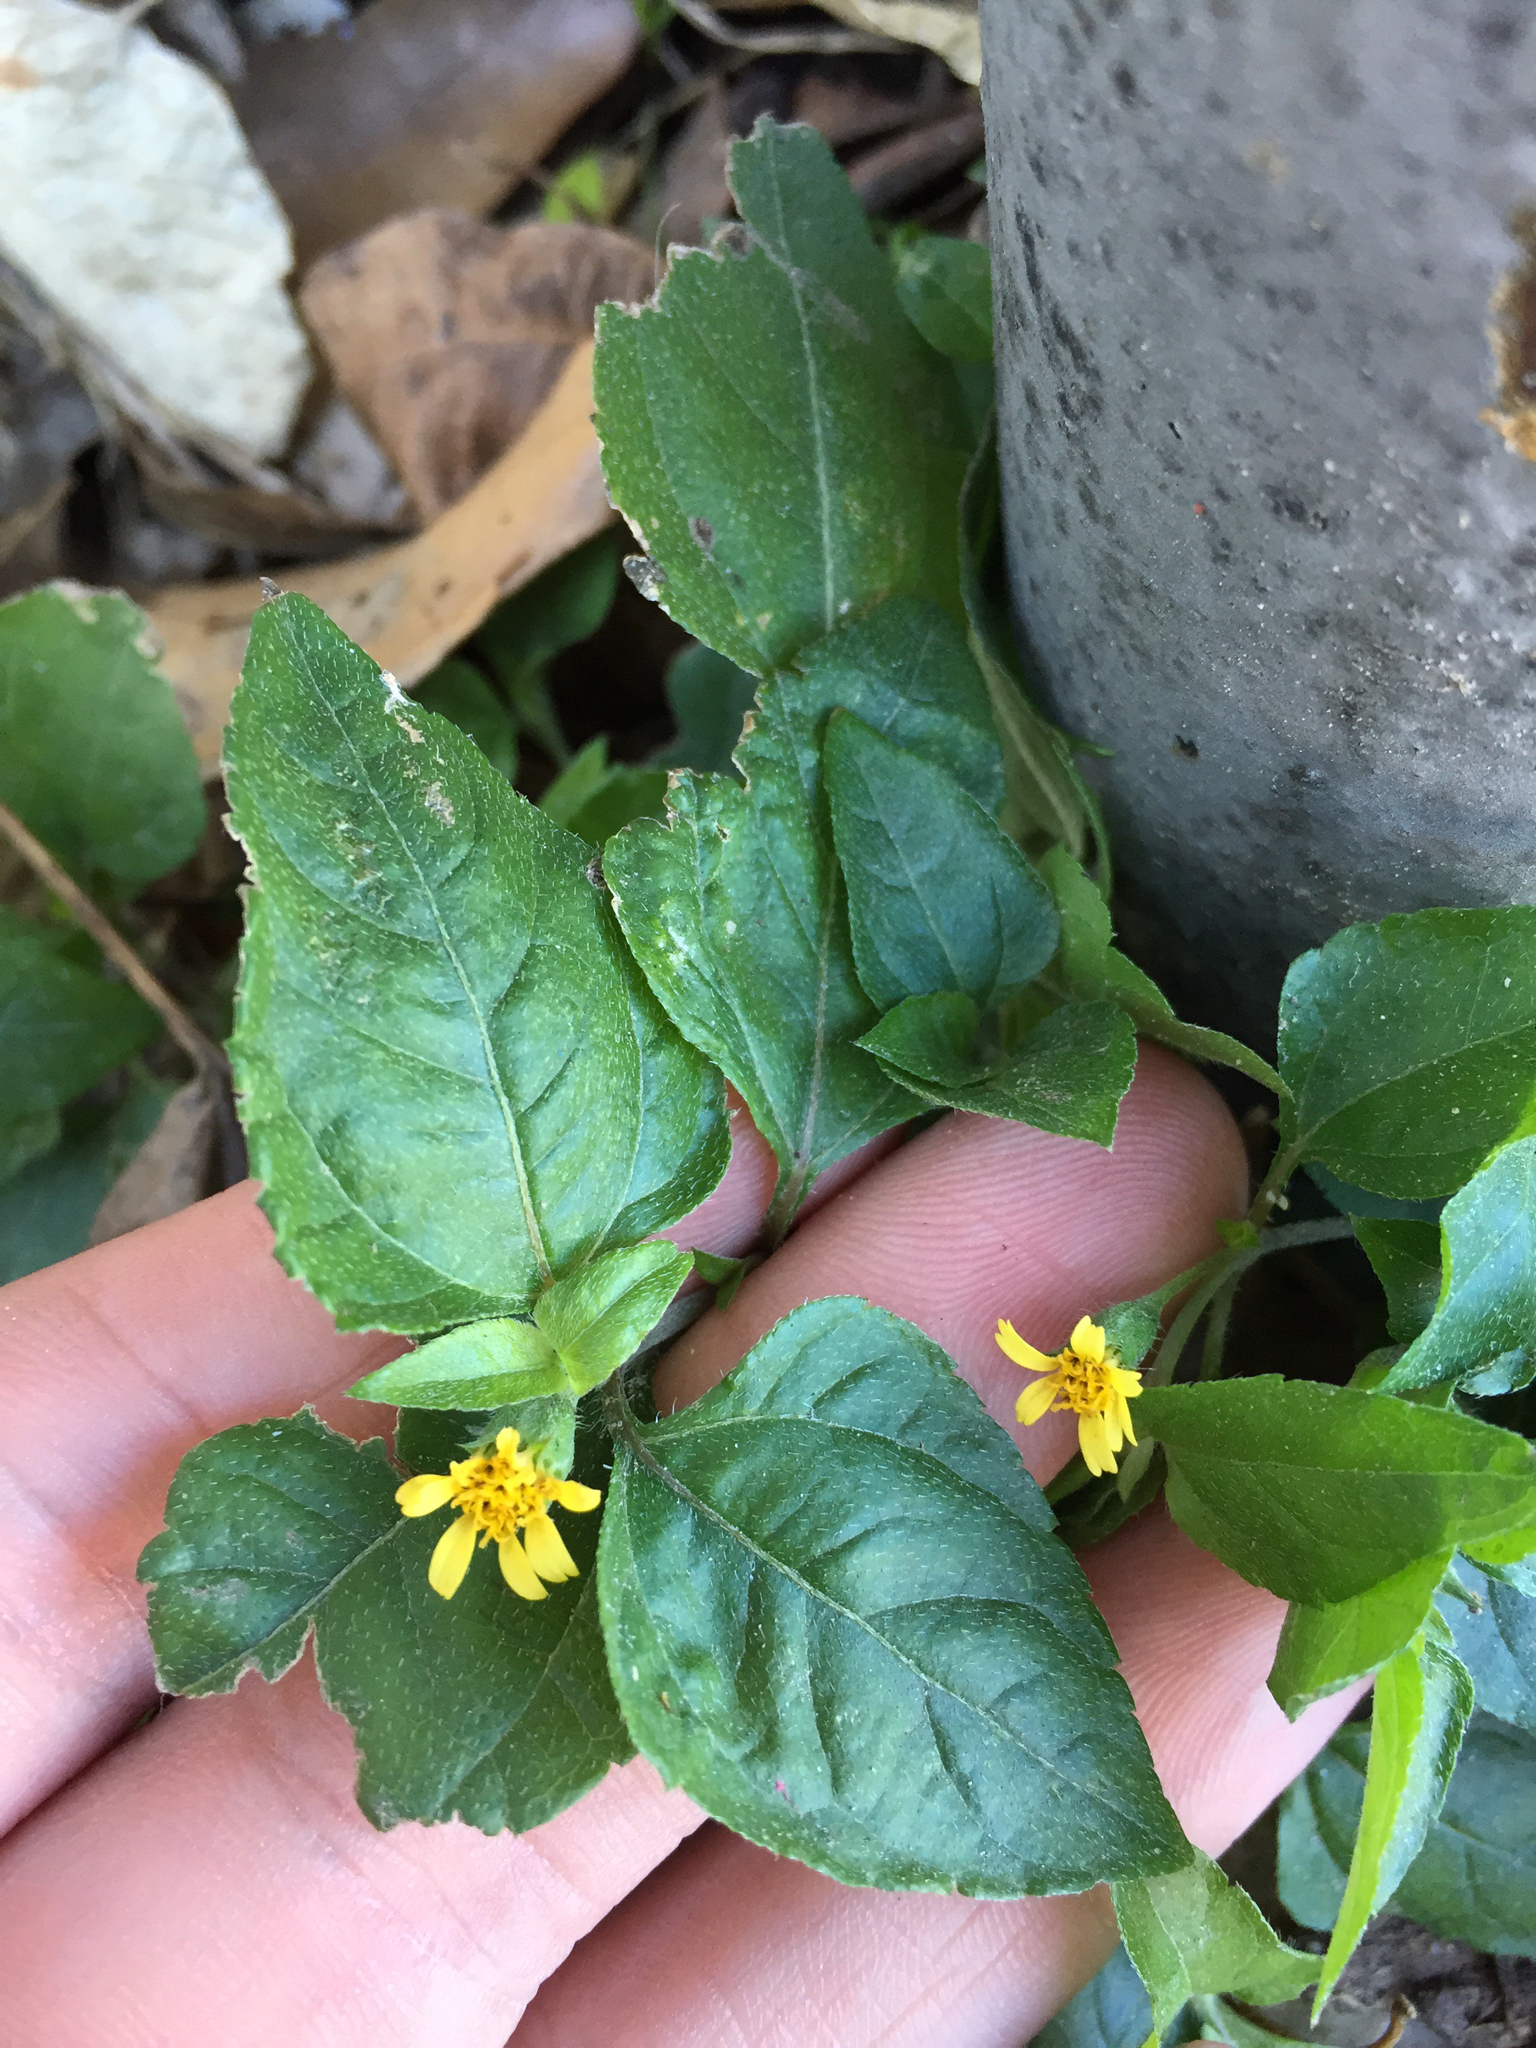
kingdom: Plantae
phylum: Tracheophyta
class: Magnoliopsida
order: Asterales
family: Asteraceae
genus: Calyptocarpus
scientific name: Calyptocarpus vialis
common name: Straggler daisy
